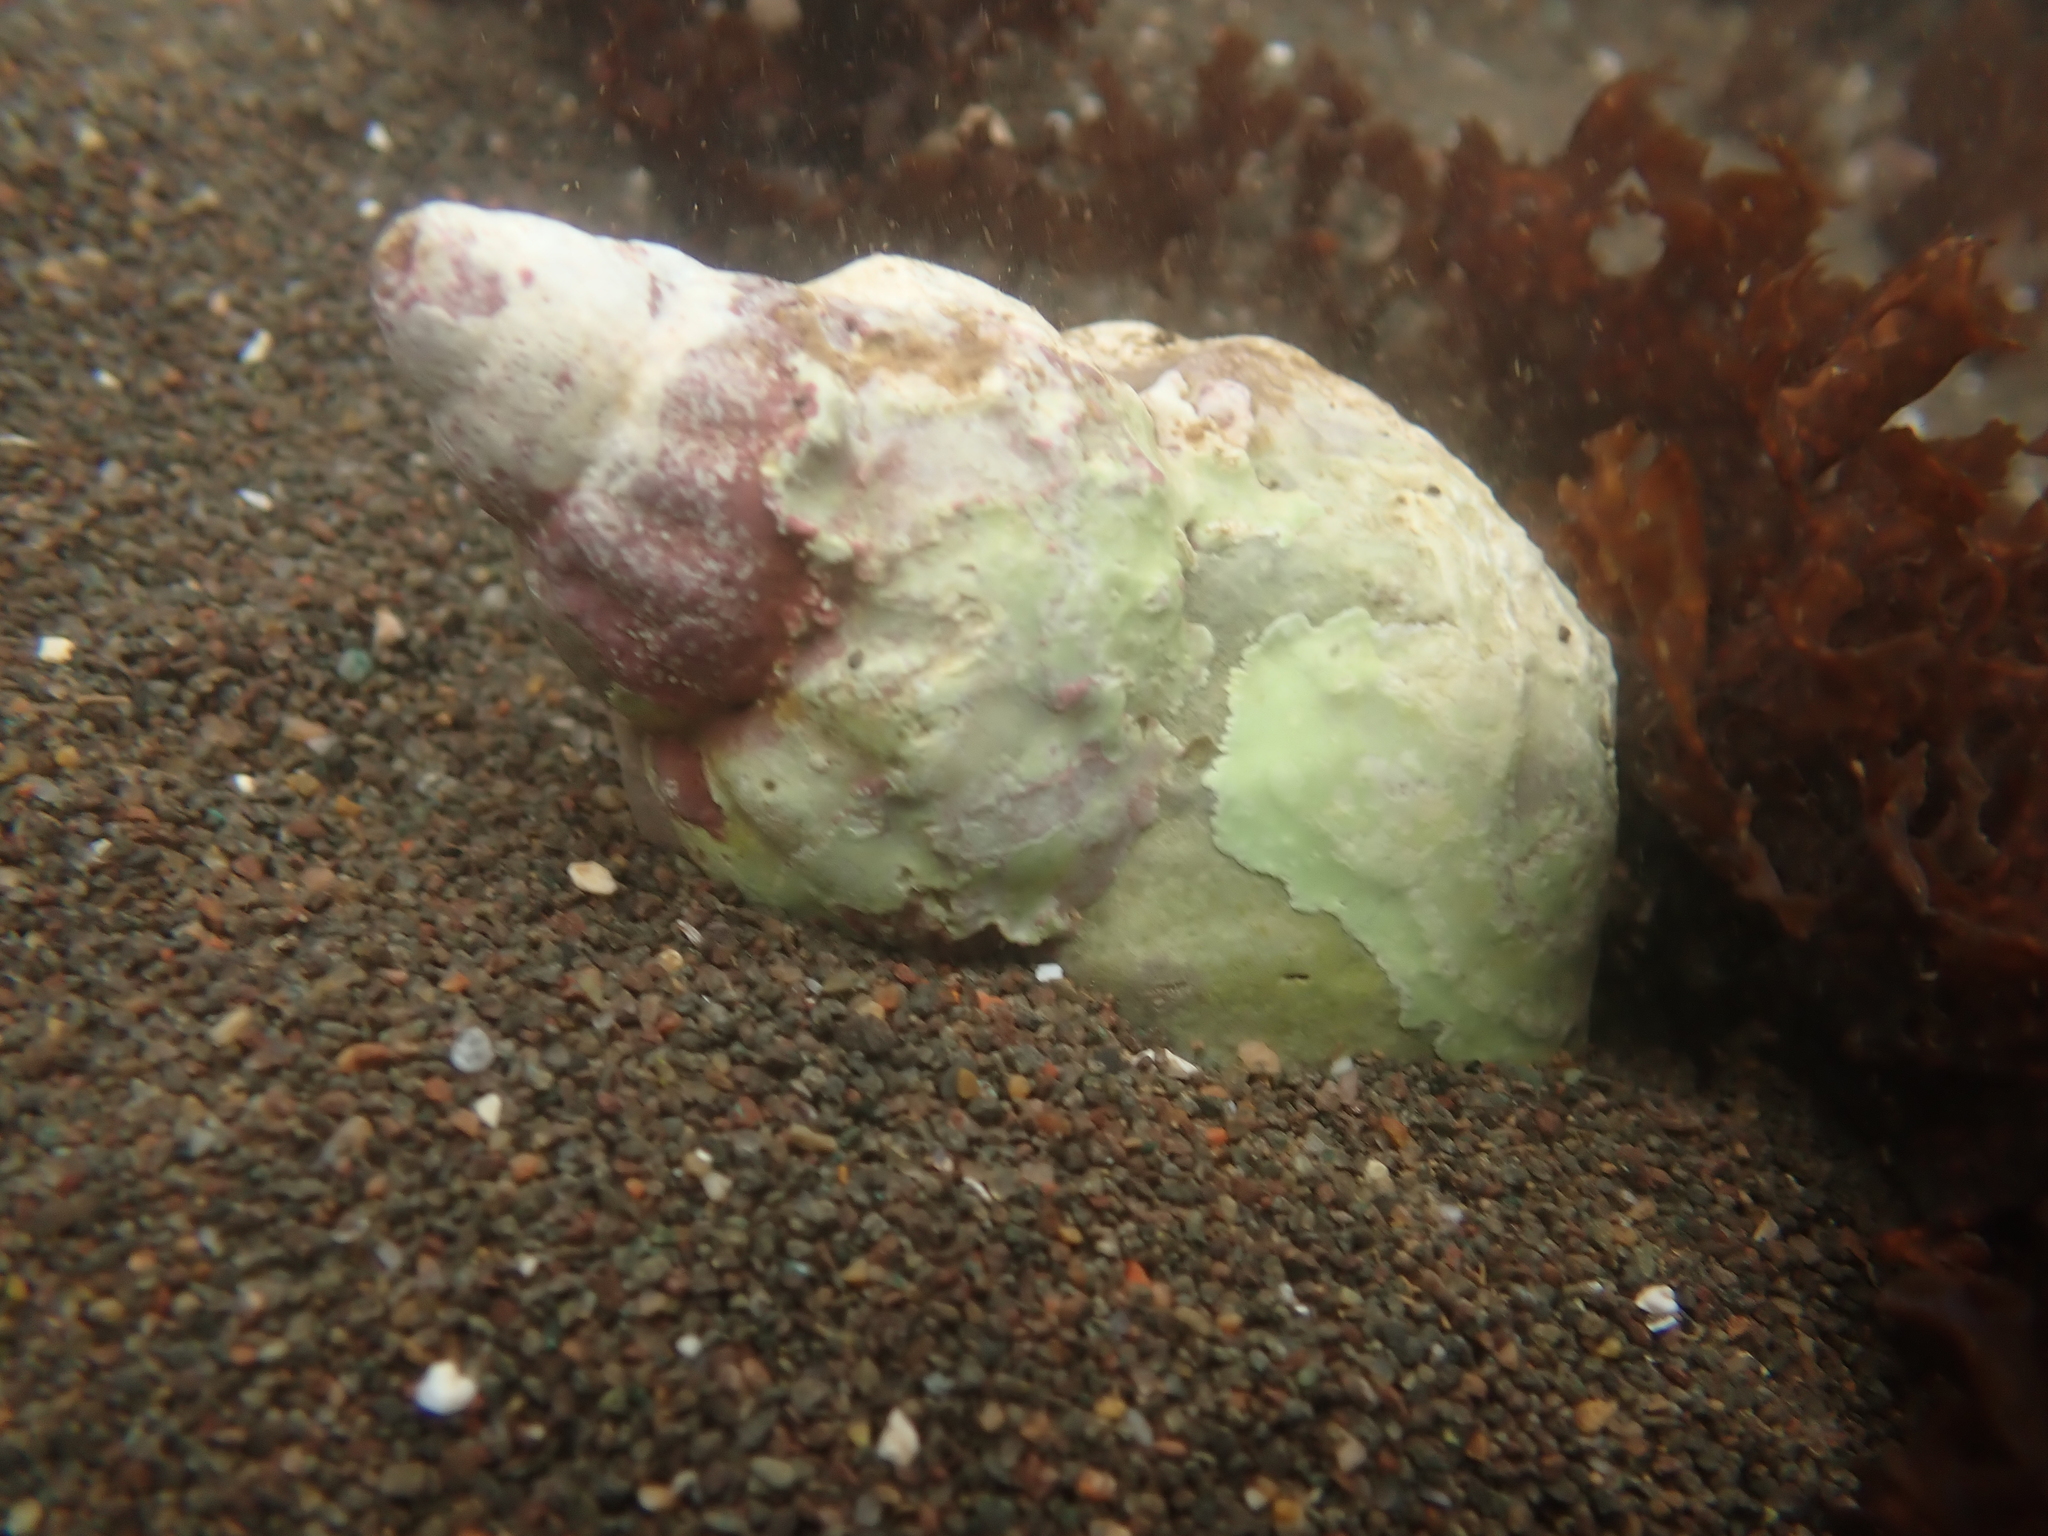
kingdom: Animalia
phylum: Mollusca
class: Gastropoda
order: Neogastropoda
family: Buccinidae
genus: Buccinum
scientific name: Buccinum undatum
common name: Common whelk
